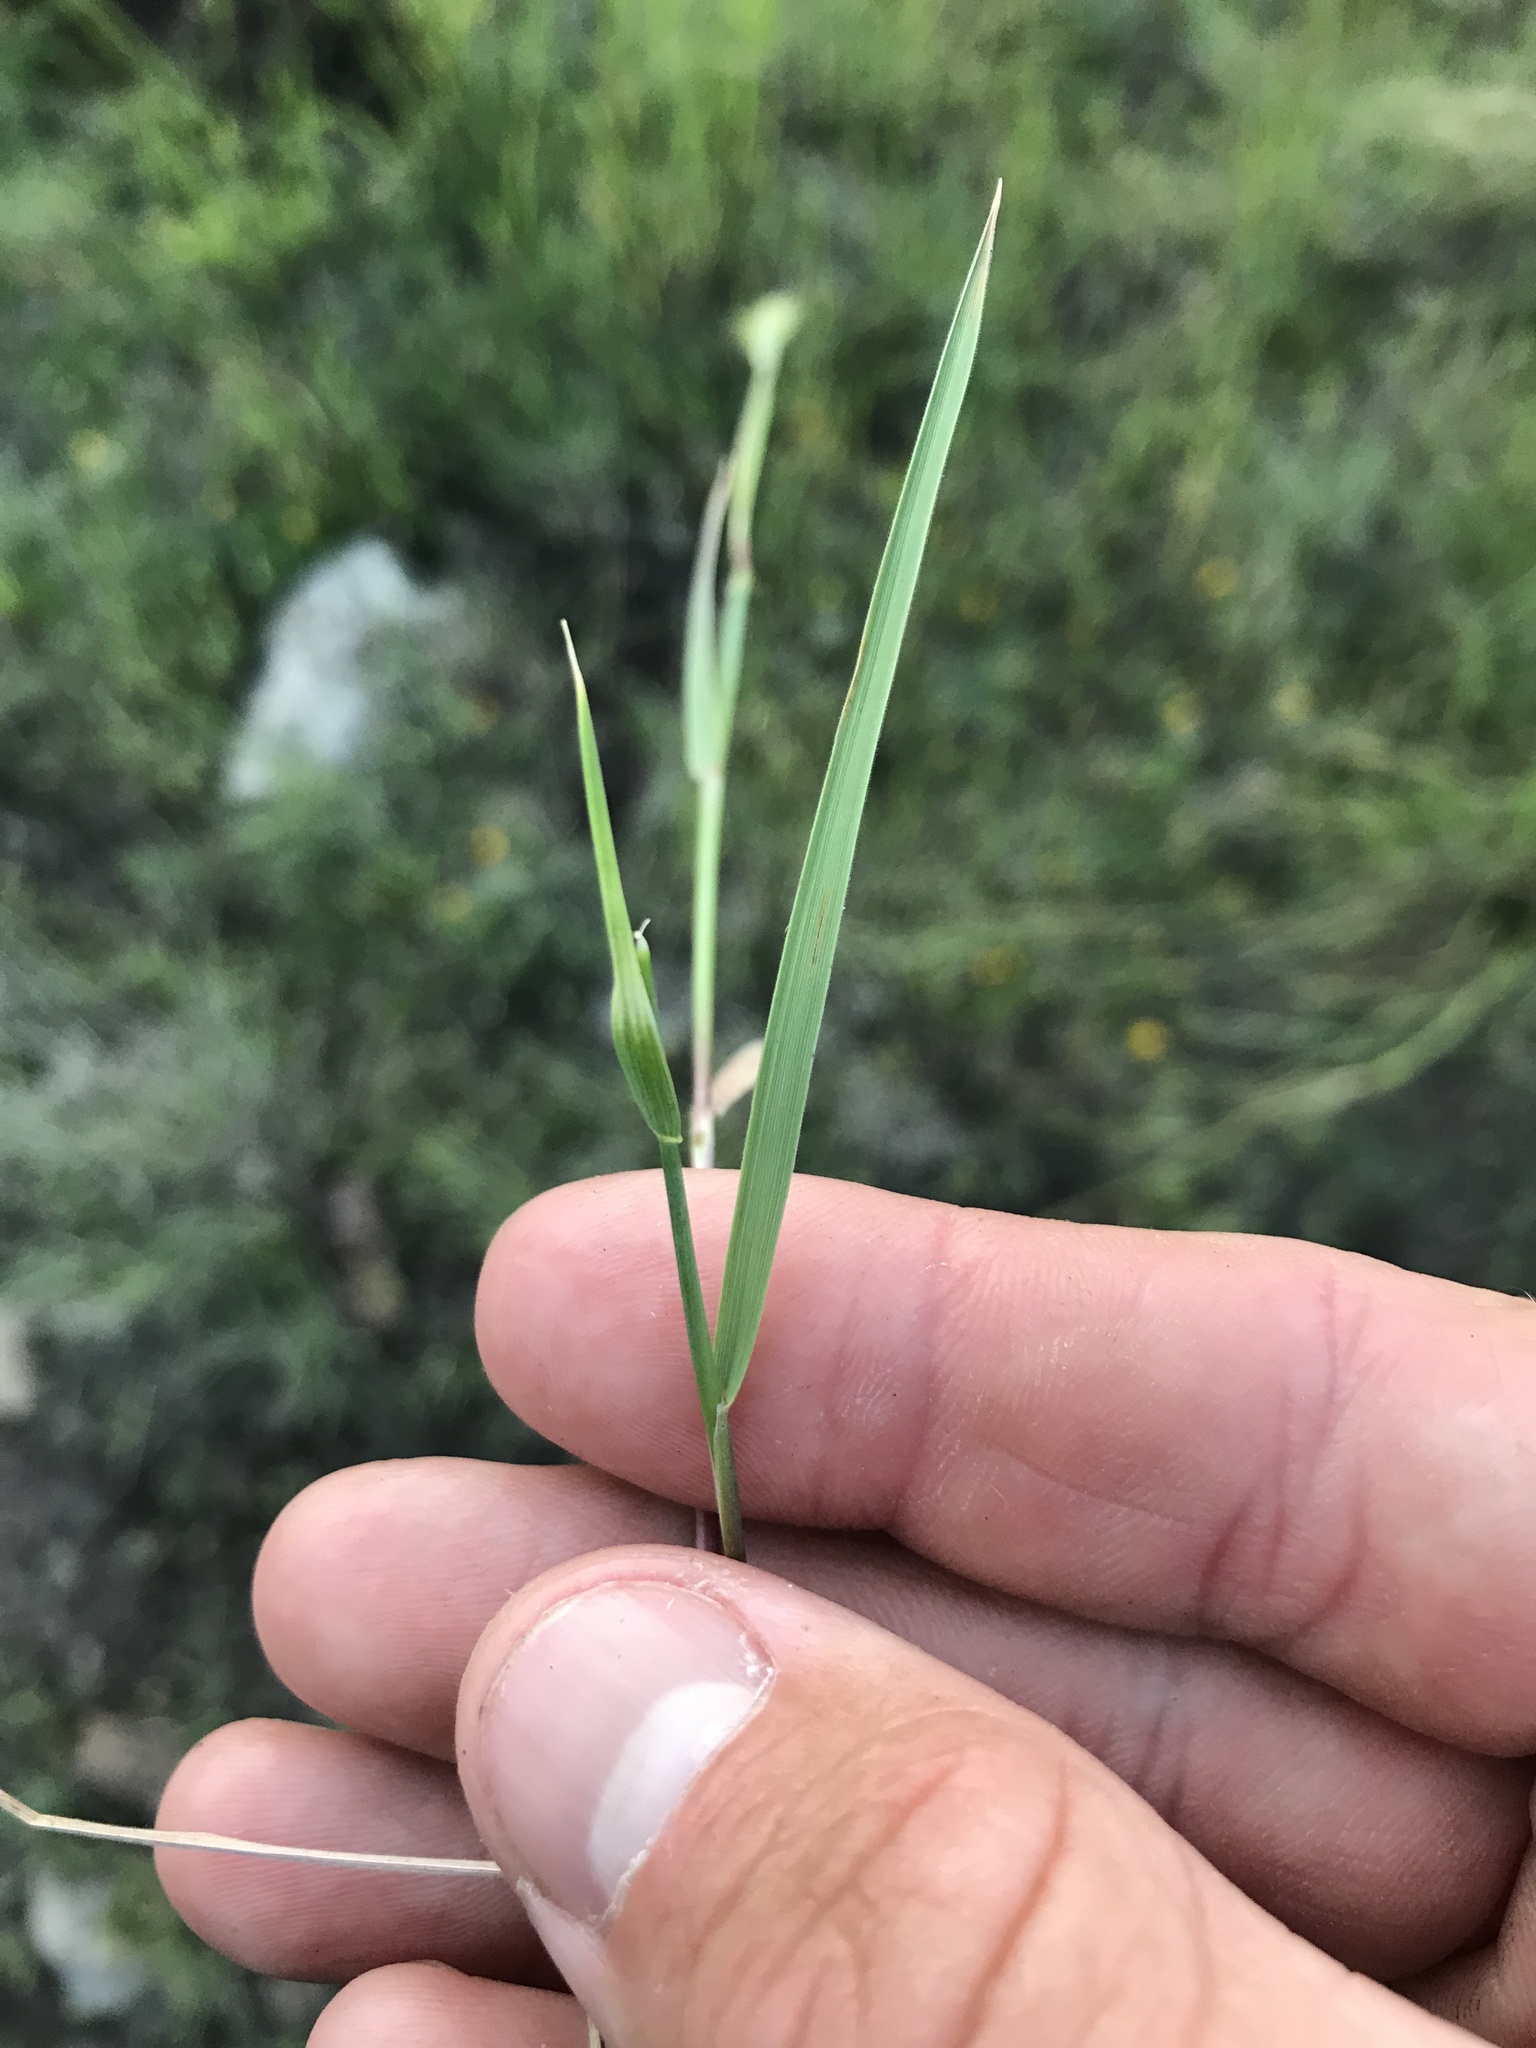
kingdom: Plantae
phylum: Tracheophyta
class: Liliopsida
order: Poales
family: Poaceae
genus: Hordeum
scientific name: Hordeum pusillum
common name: Little barley
